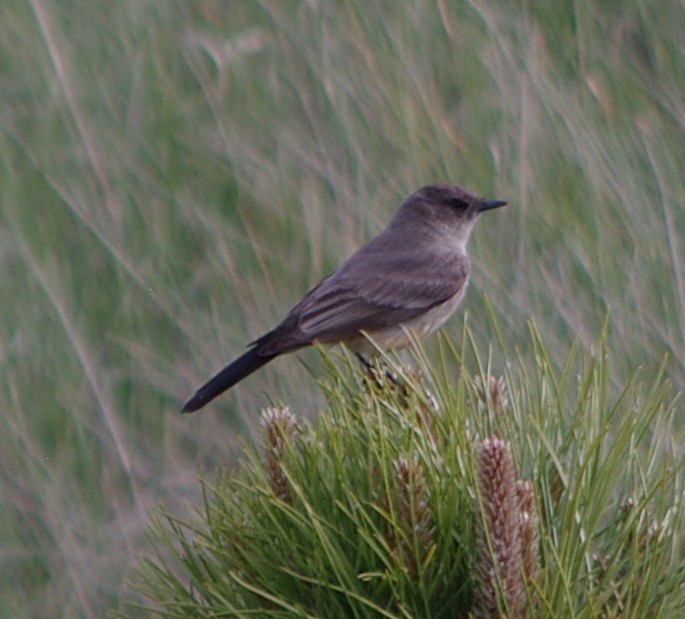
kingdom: Animalia
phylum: Chordata
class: Aves
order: Passeriformes
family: Tyrannidae
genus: Sayornis
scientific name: Sayornis saya
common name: Say's phoebe
